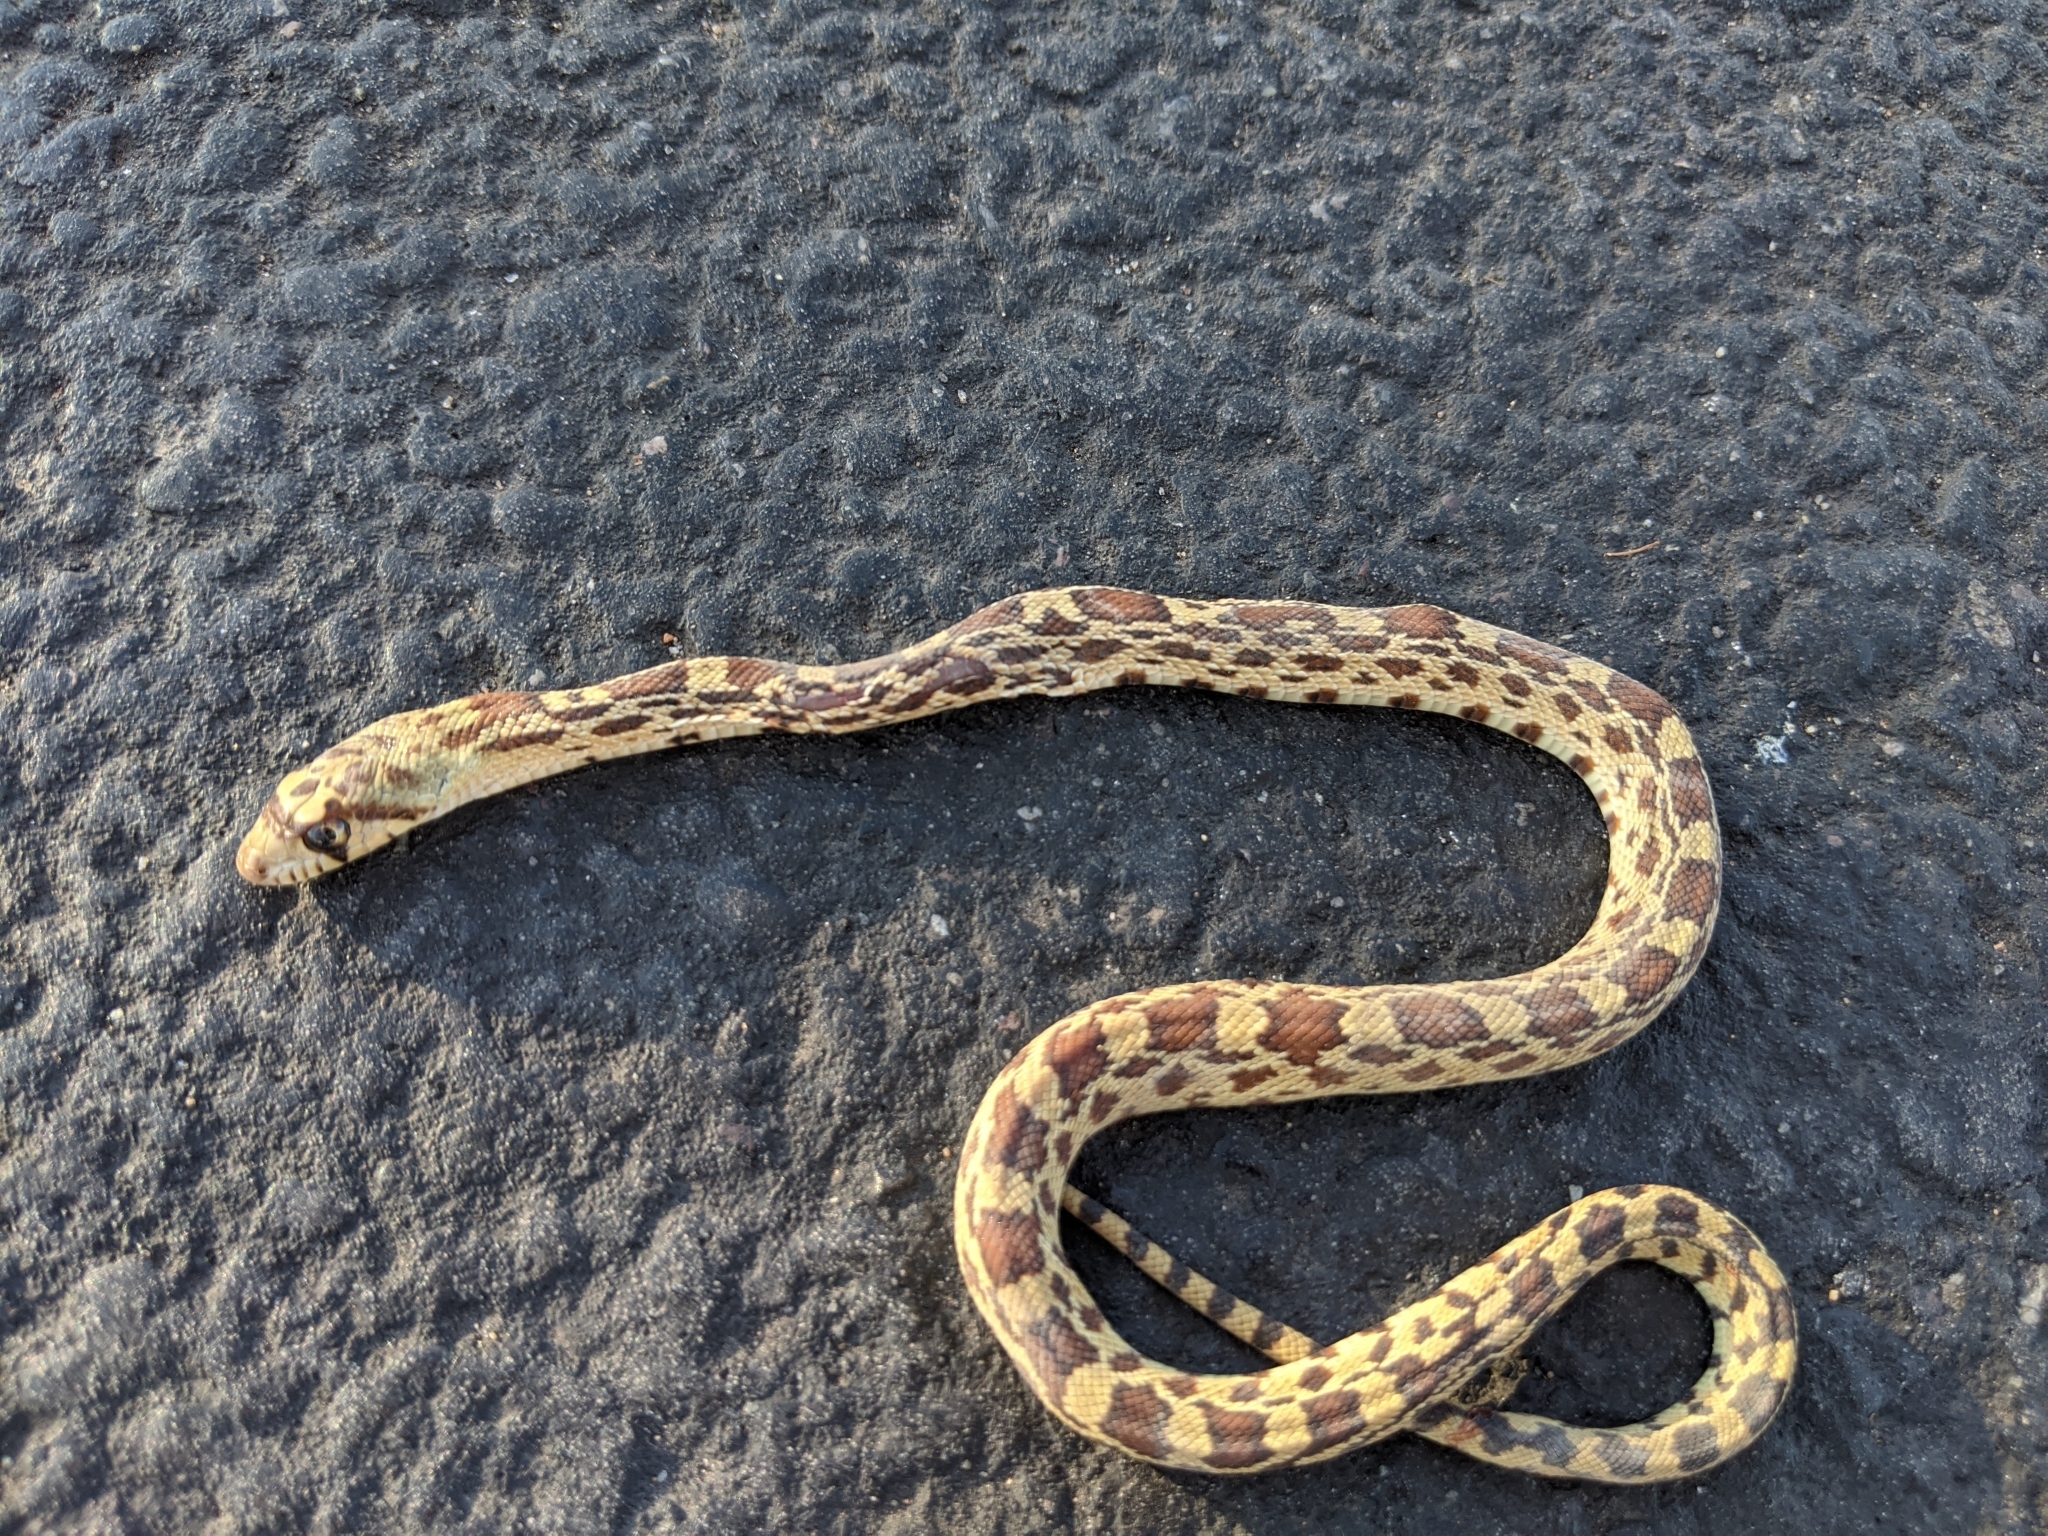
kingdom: Animalia
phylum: Chordata
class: Squamata
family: Colubridae
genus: Pituophis
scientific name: Pituophis catenifer
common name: Gopher snake
